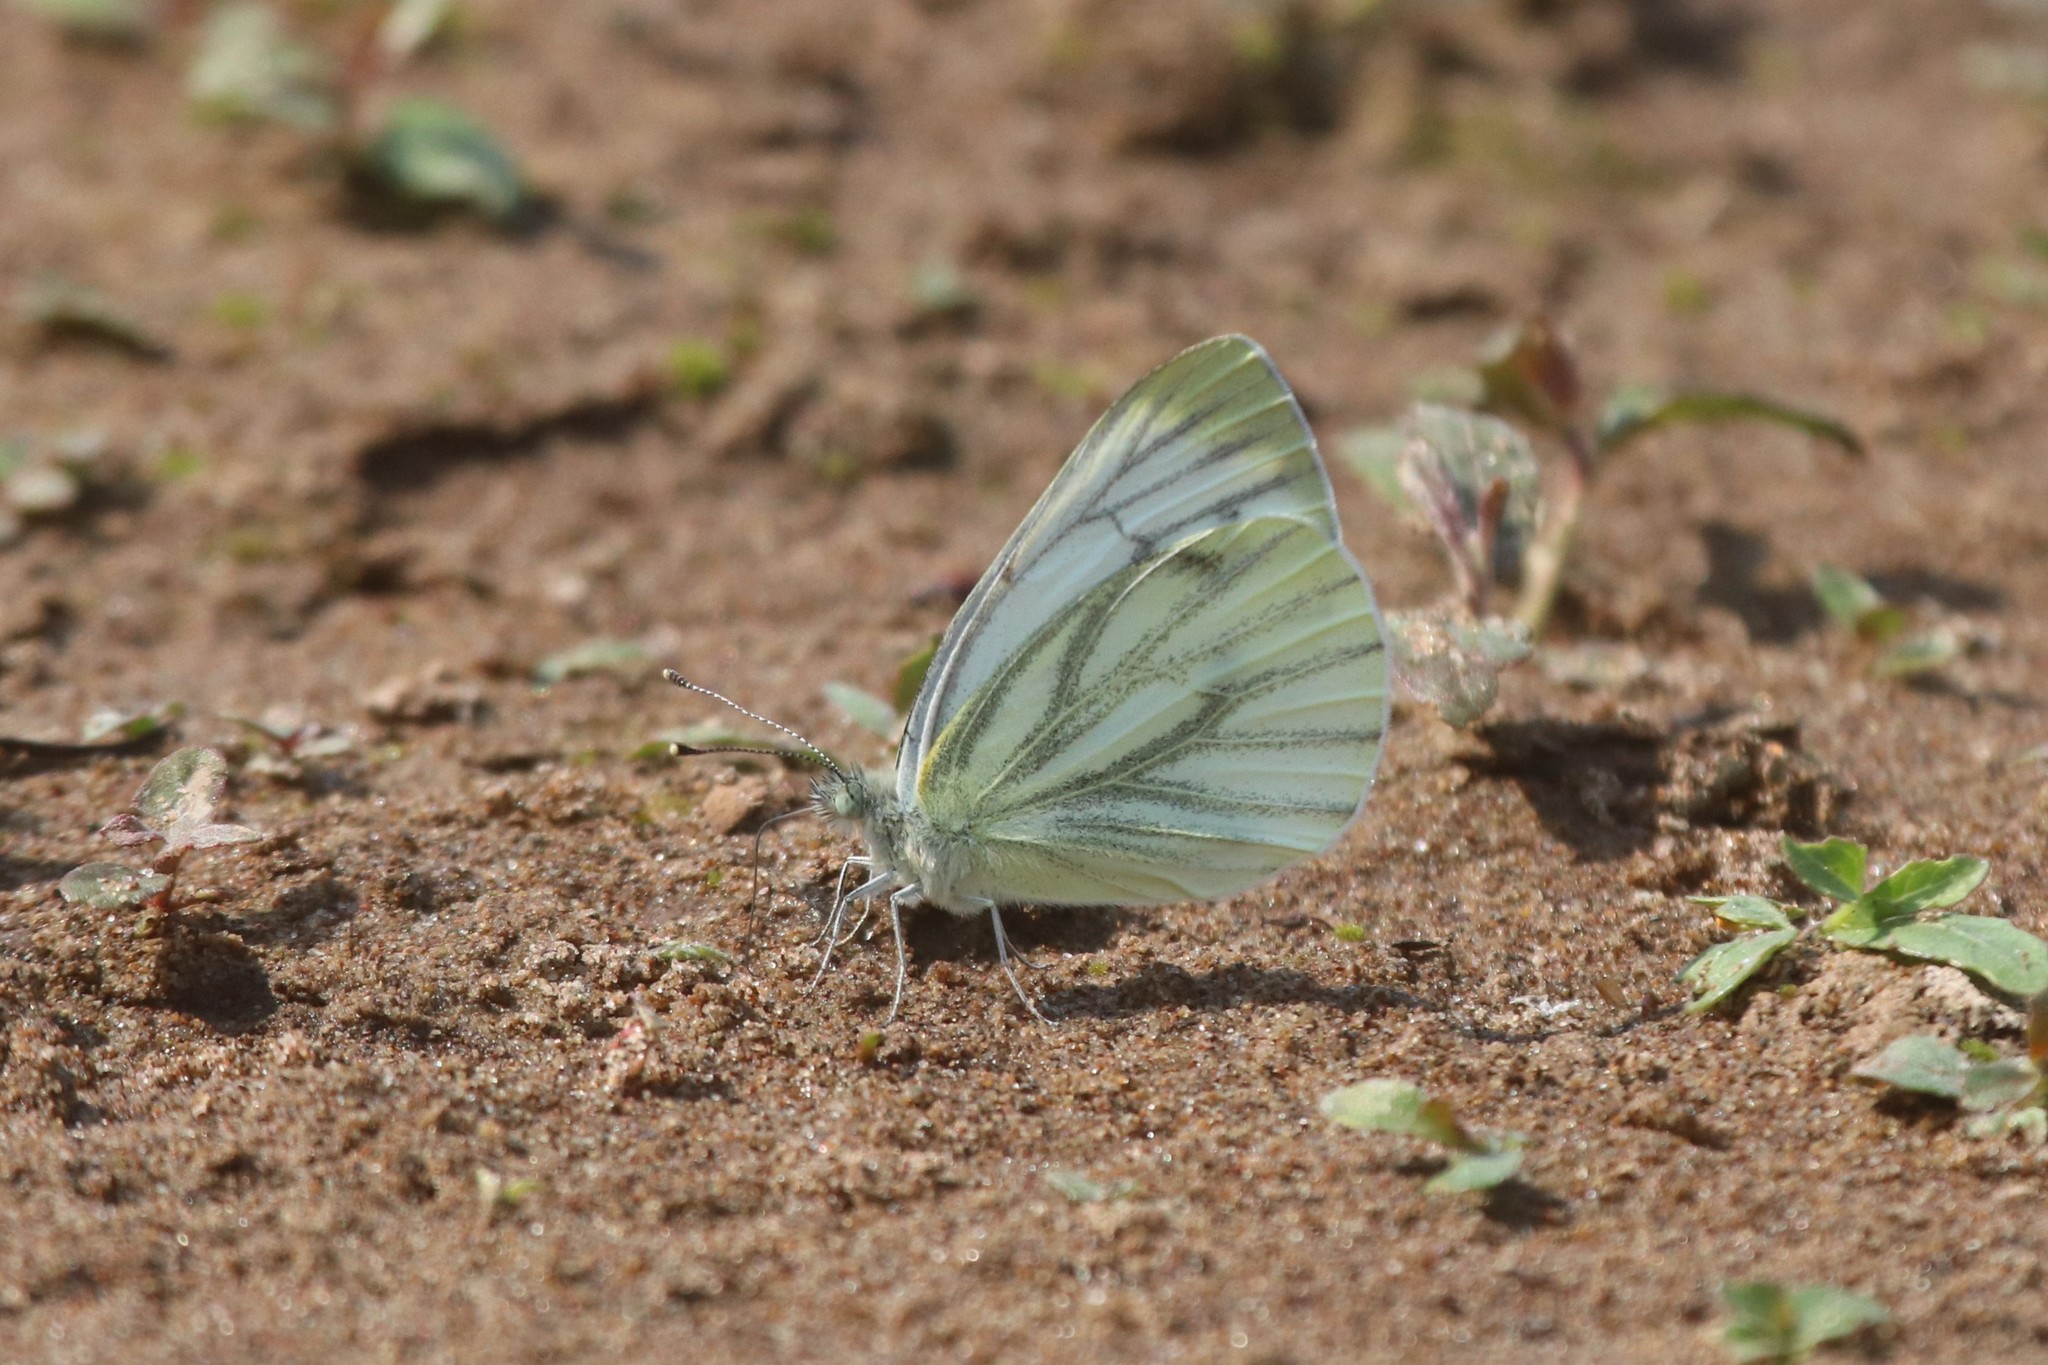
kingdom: Animalia
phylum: Arthropoda
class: Insecta
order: Lepidoptera
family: Pieridae
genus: Pieris
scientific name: Pieris napi
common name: Green-veined white
